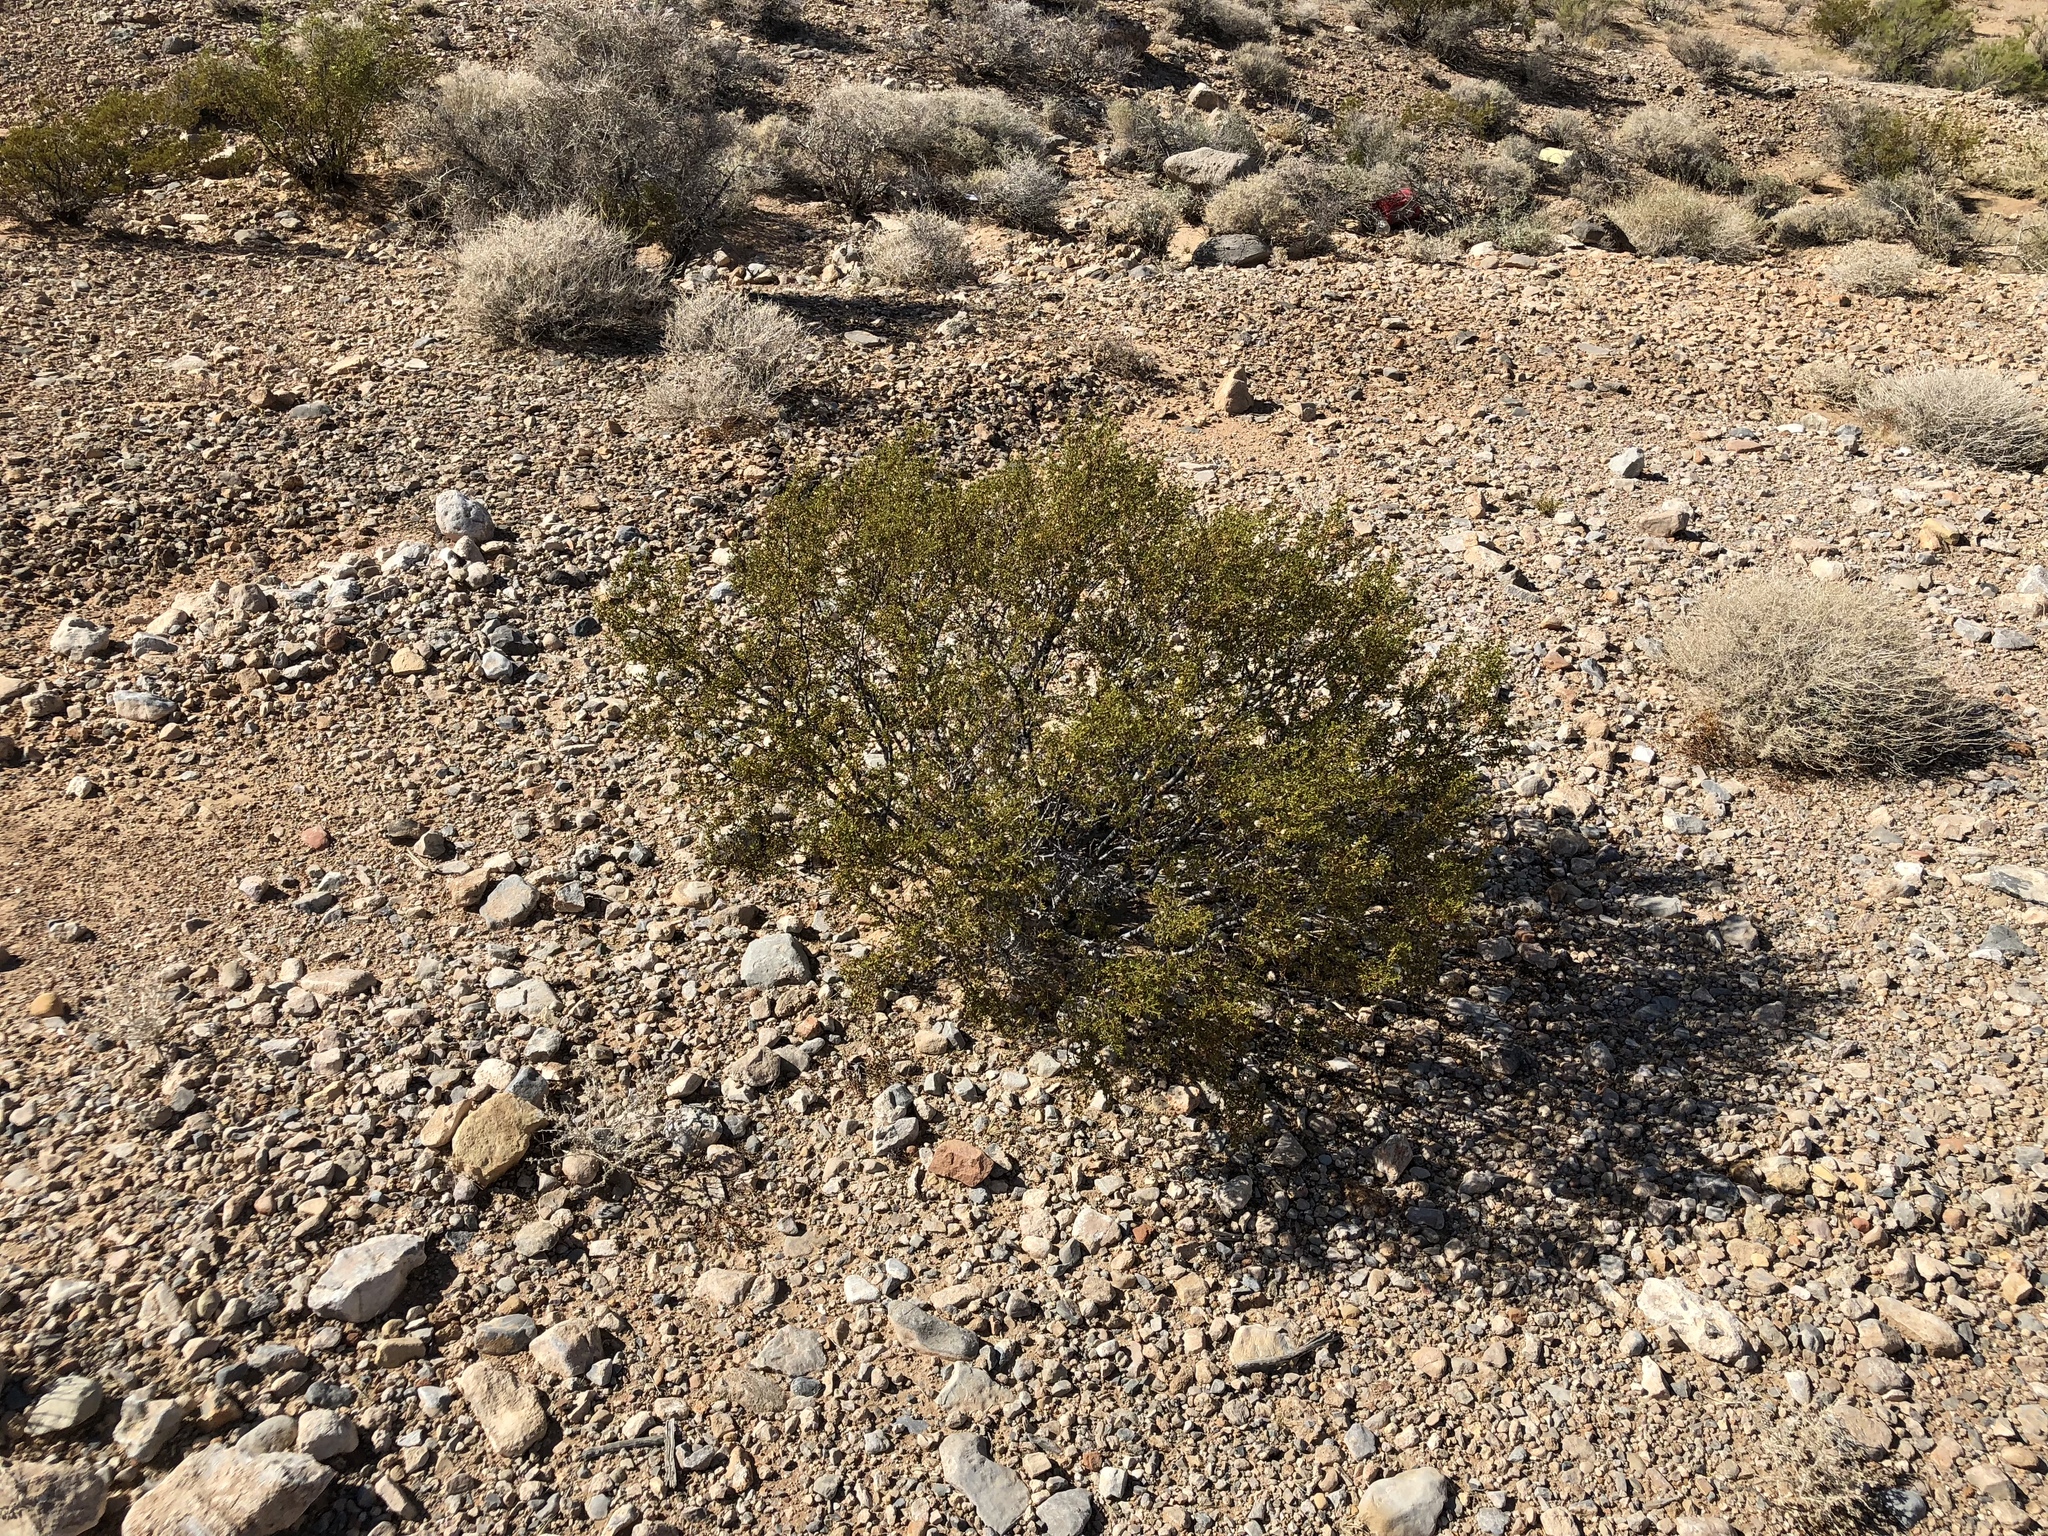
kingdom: Plantae
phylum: Tracheophyta
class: Magnoliopsida
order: Zygophyllales
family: Zygophyllaceae
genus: Larrea
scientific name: Larrea tridentata
